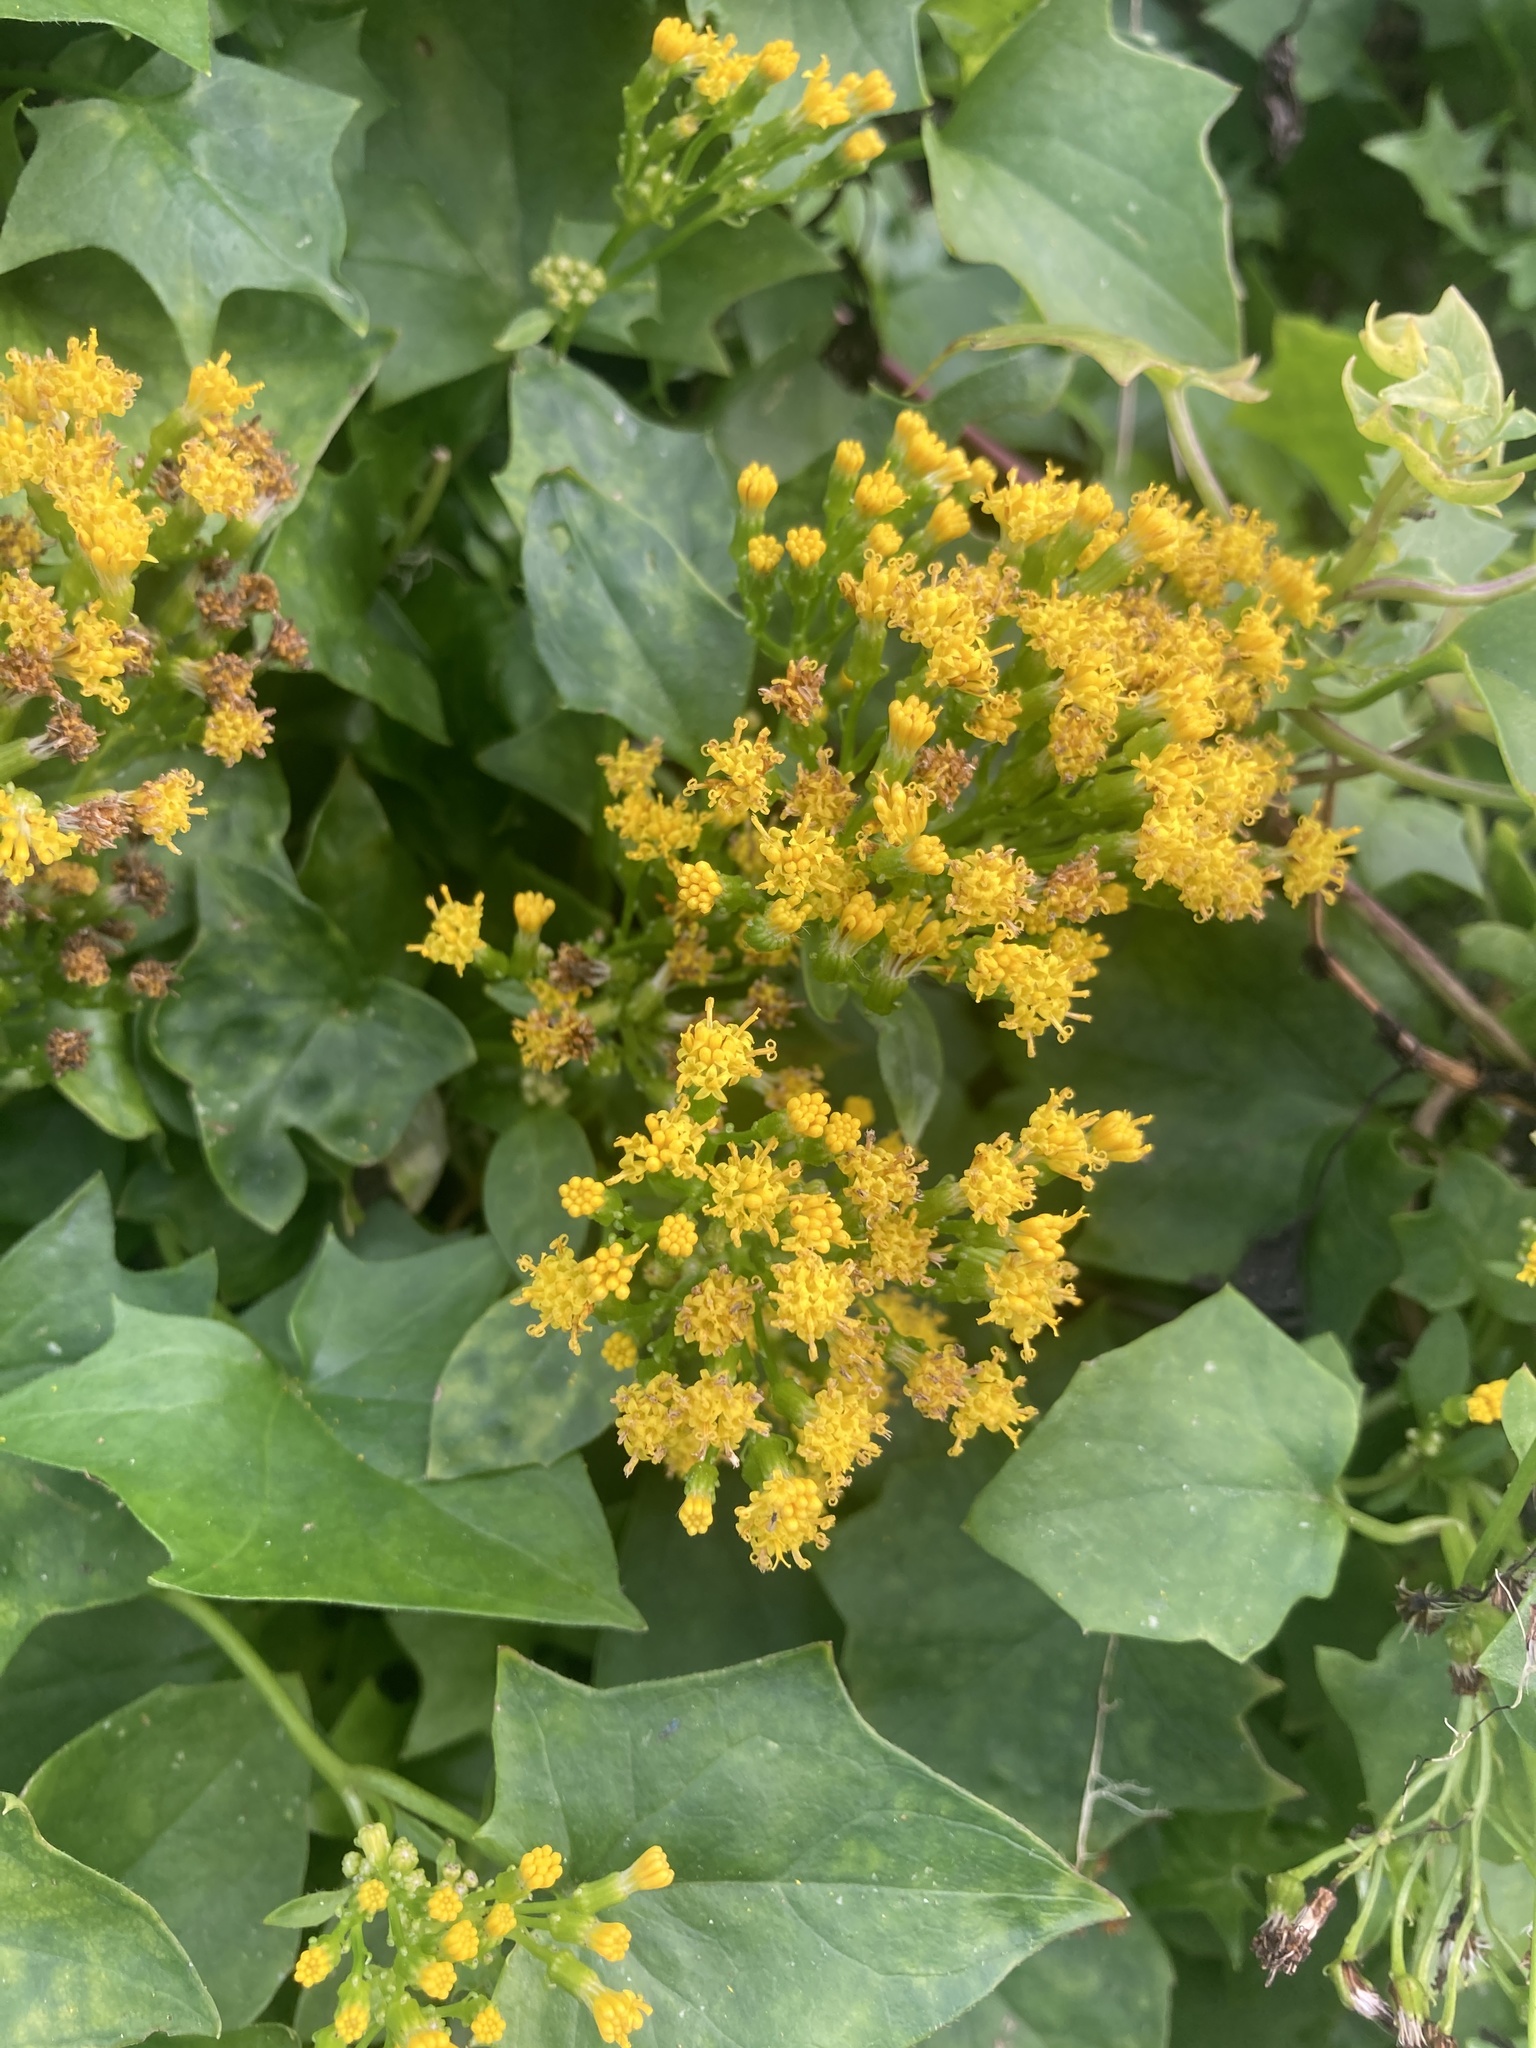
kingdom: Plantae
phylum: Tracheophyta
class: Magnoliopsida
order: Asterales
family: Asteraceae
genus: Delairea
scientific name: Delairea odorata
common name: Cape-ivy
